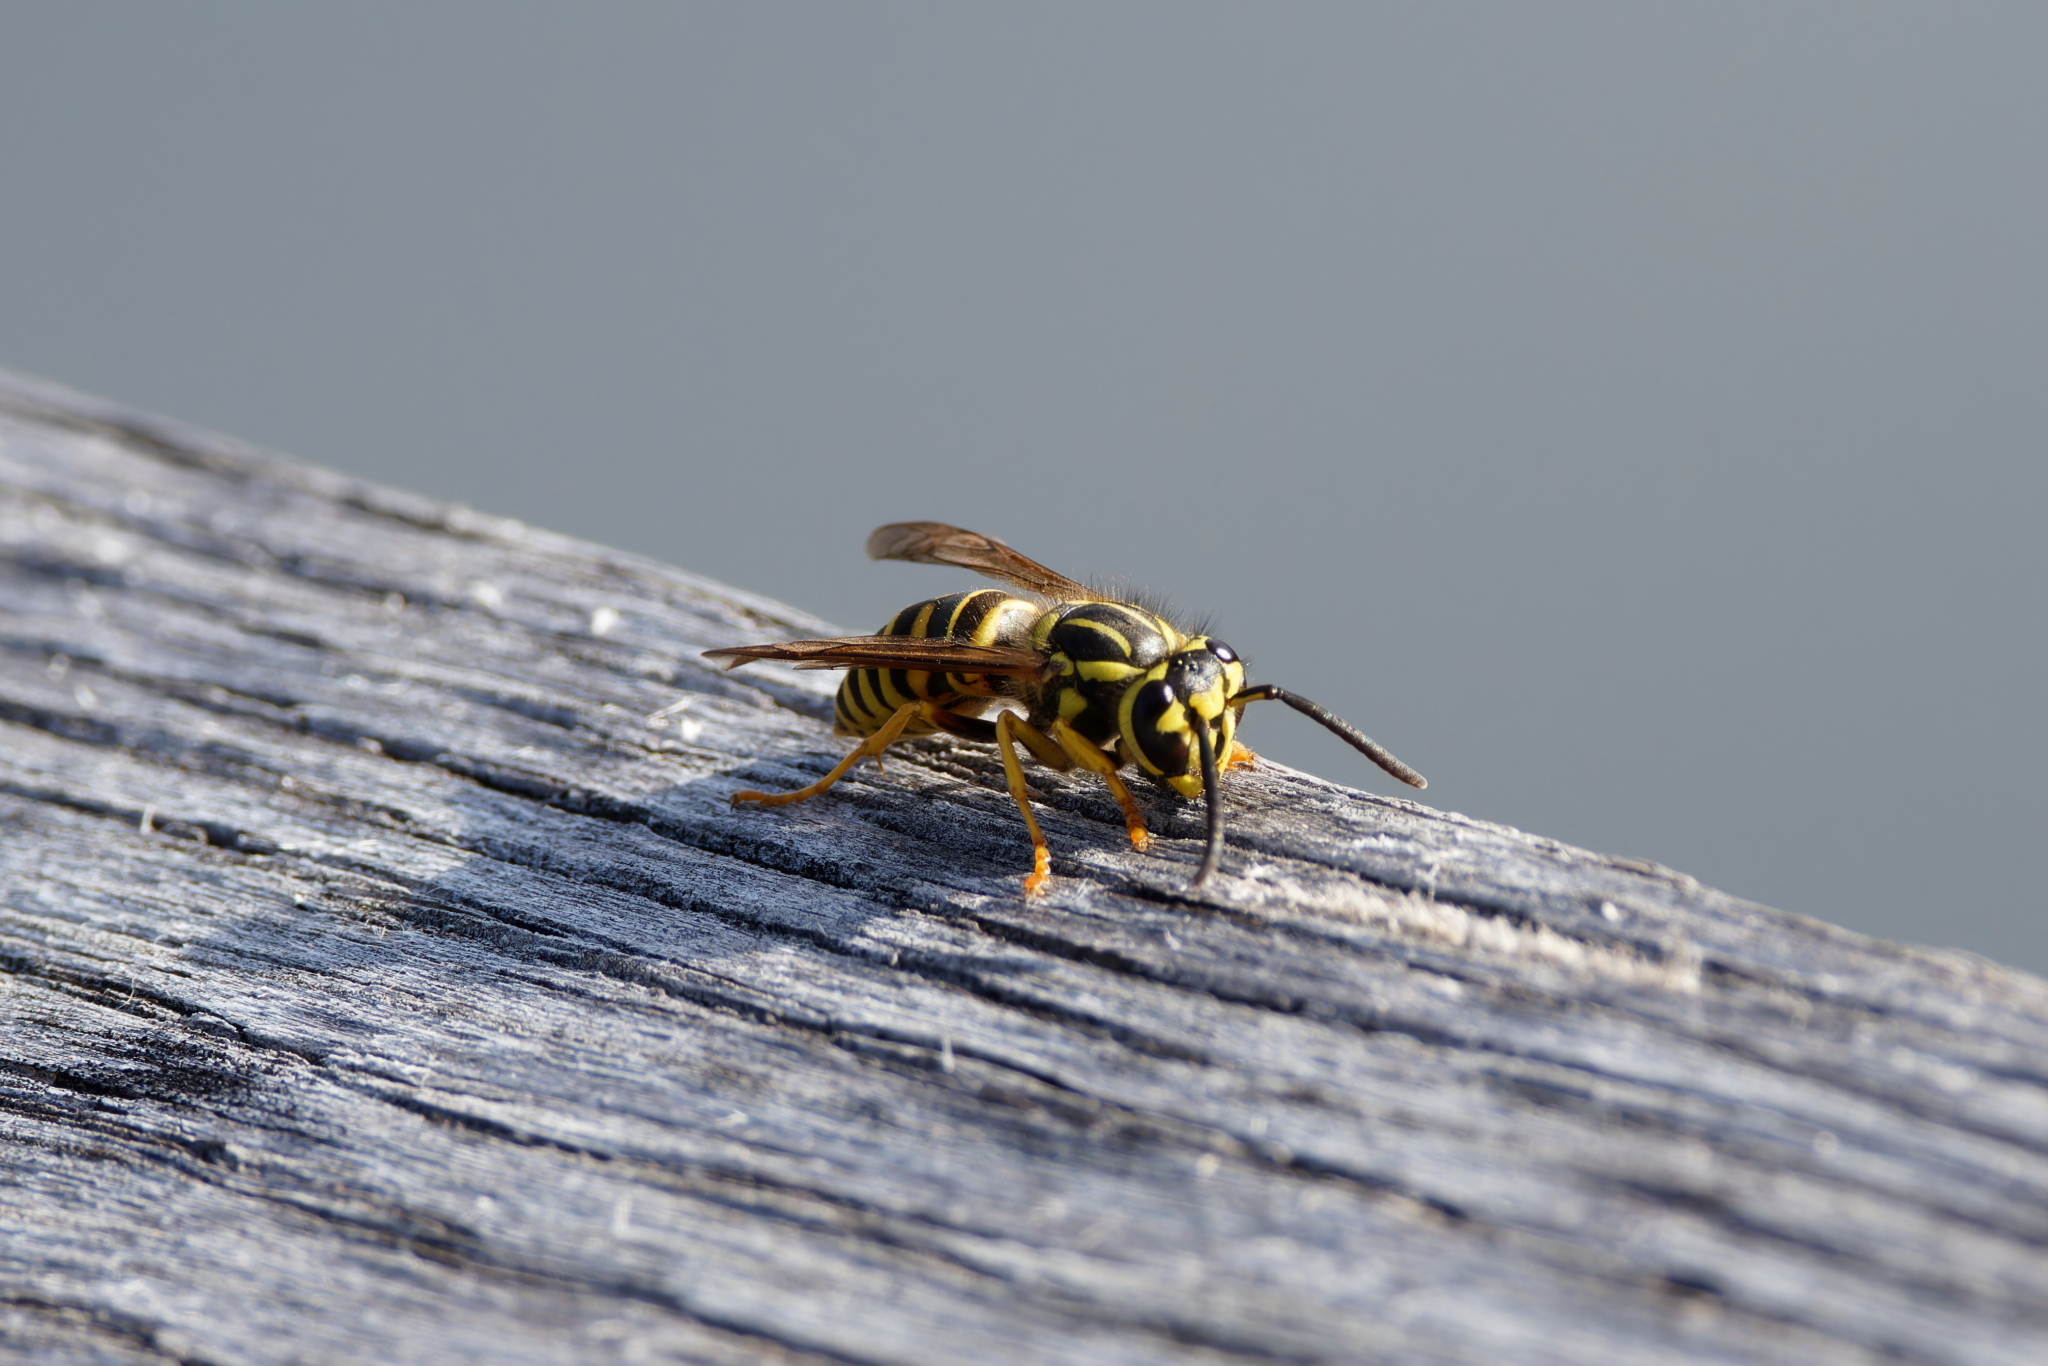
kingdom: Animalia
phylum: Arthropoda
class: Insecta
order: Hymenoptera
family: Vespidae
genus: Vespula
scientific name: Vespula squamosa
